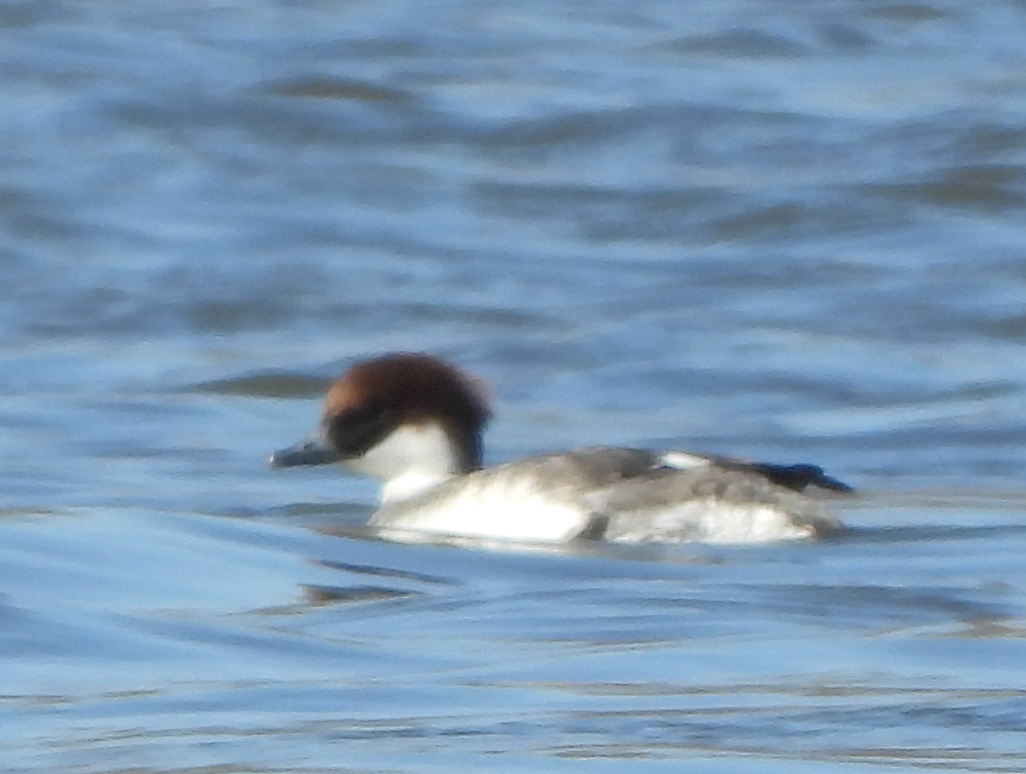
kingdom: Animalia
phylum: Chordata
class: Aves
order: Anseriformes
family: Anatidae
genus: Mergellus
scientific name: Mergellus albellus
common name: Smew
